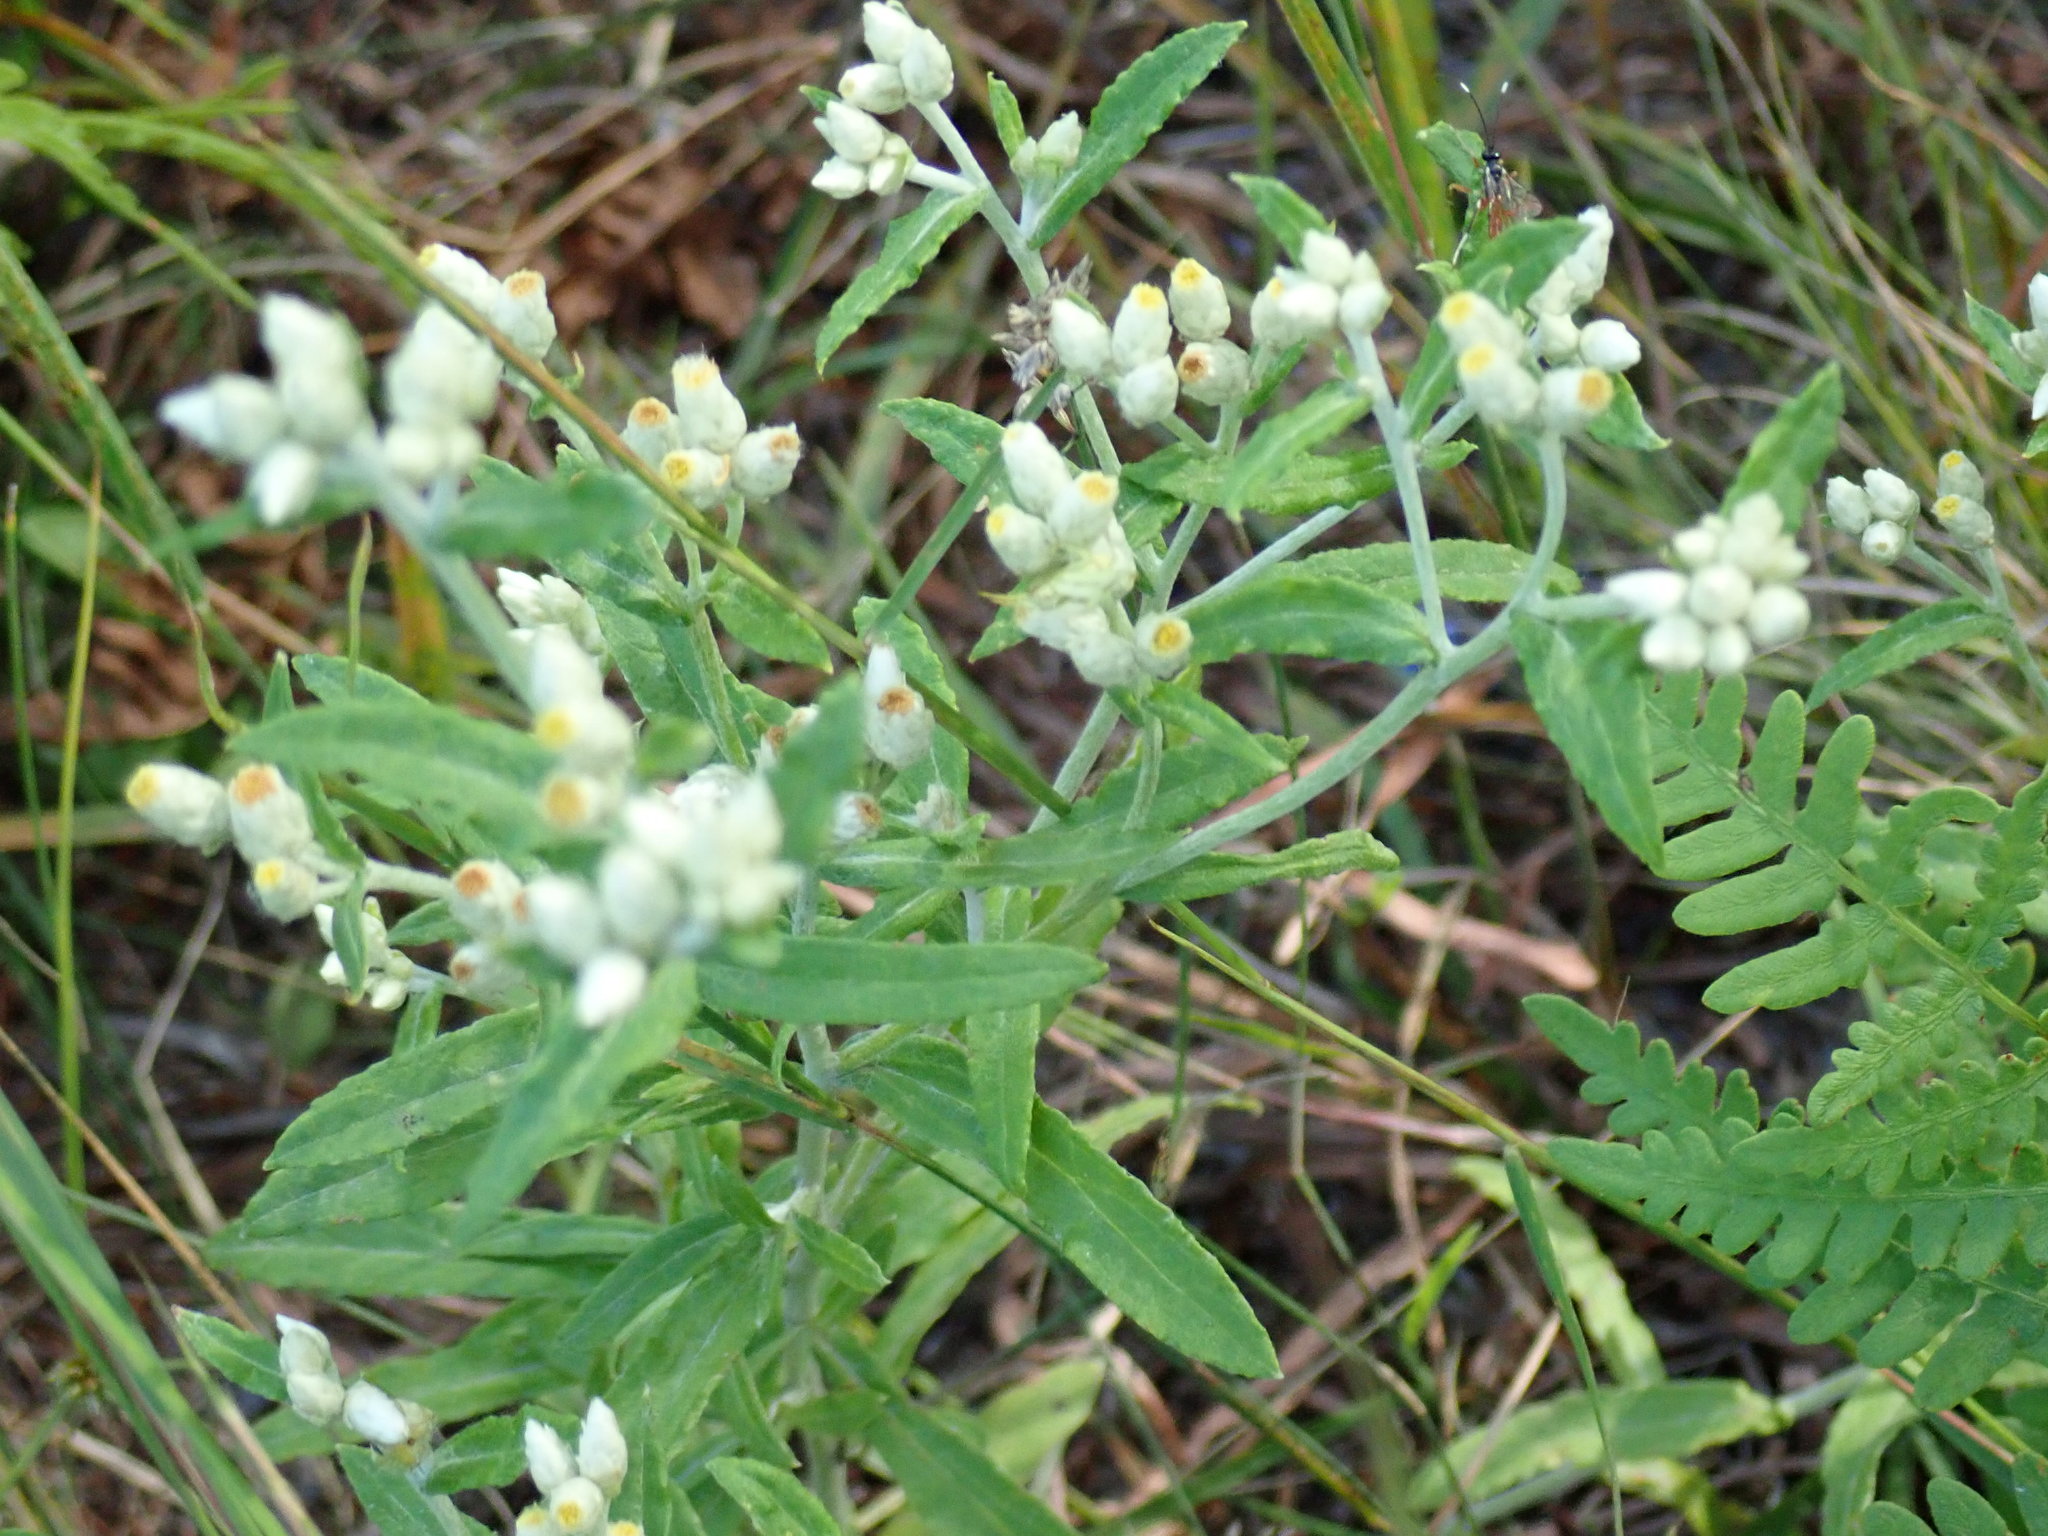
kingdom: Plantae
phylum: Tracheophyta
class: Magnoliopsida
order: Asterales
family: Asteraceae
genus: Pseudognaphalium
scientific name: Pseudognaphalium obtusifolium
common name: Eastern rabbit-tobacco
